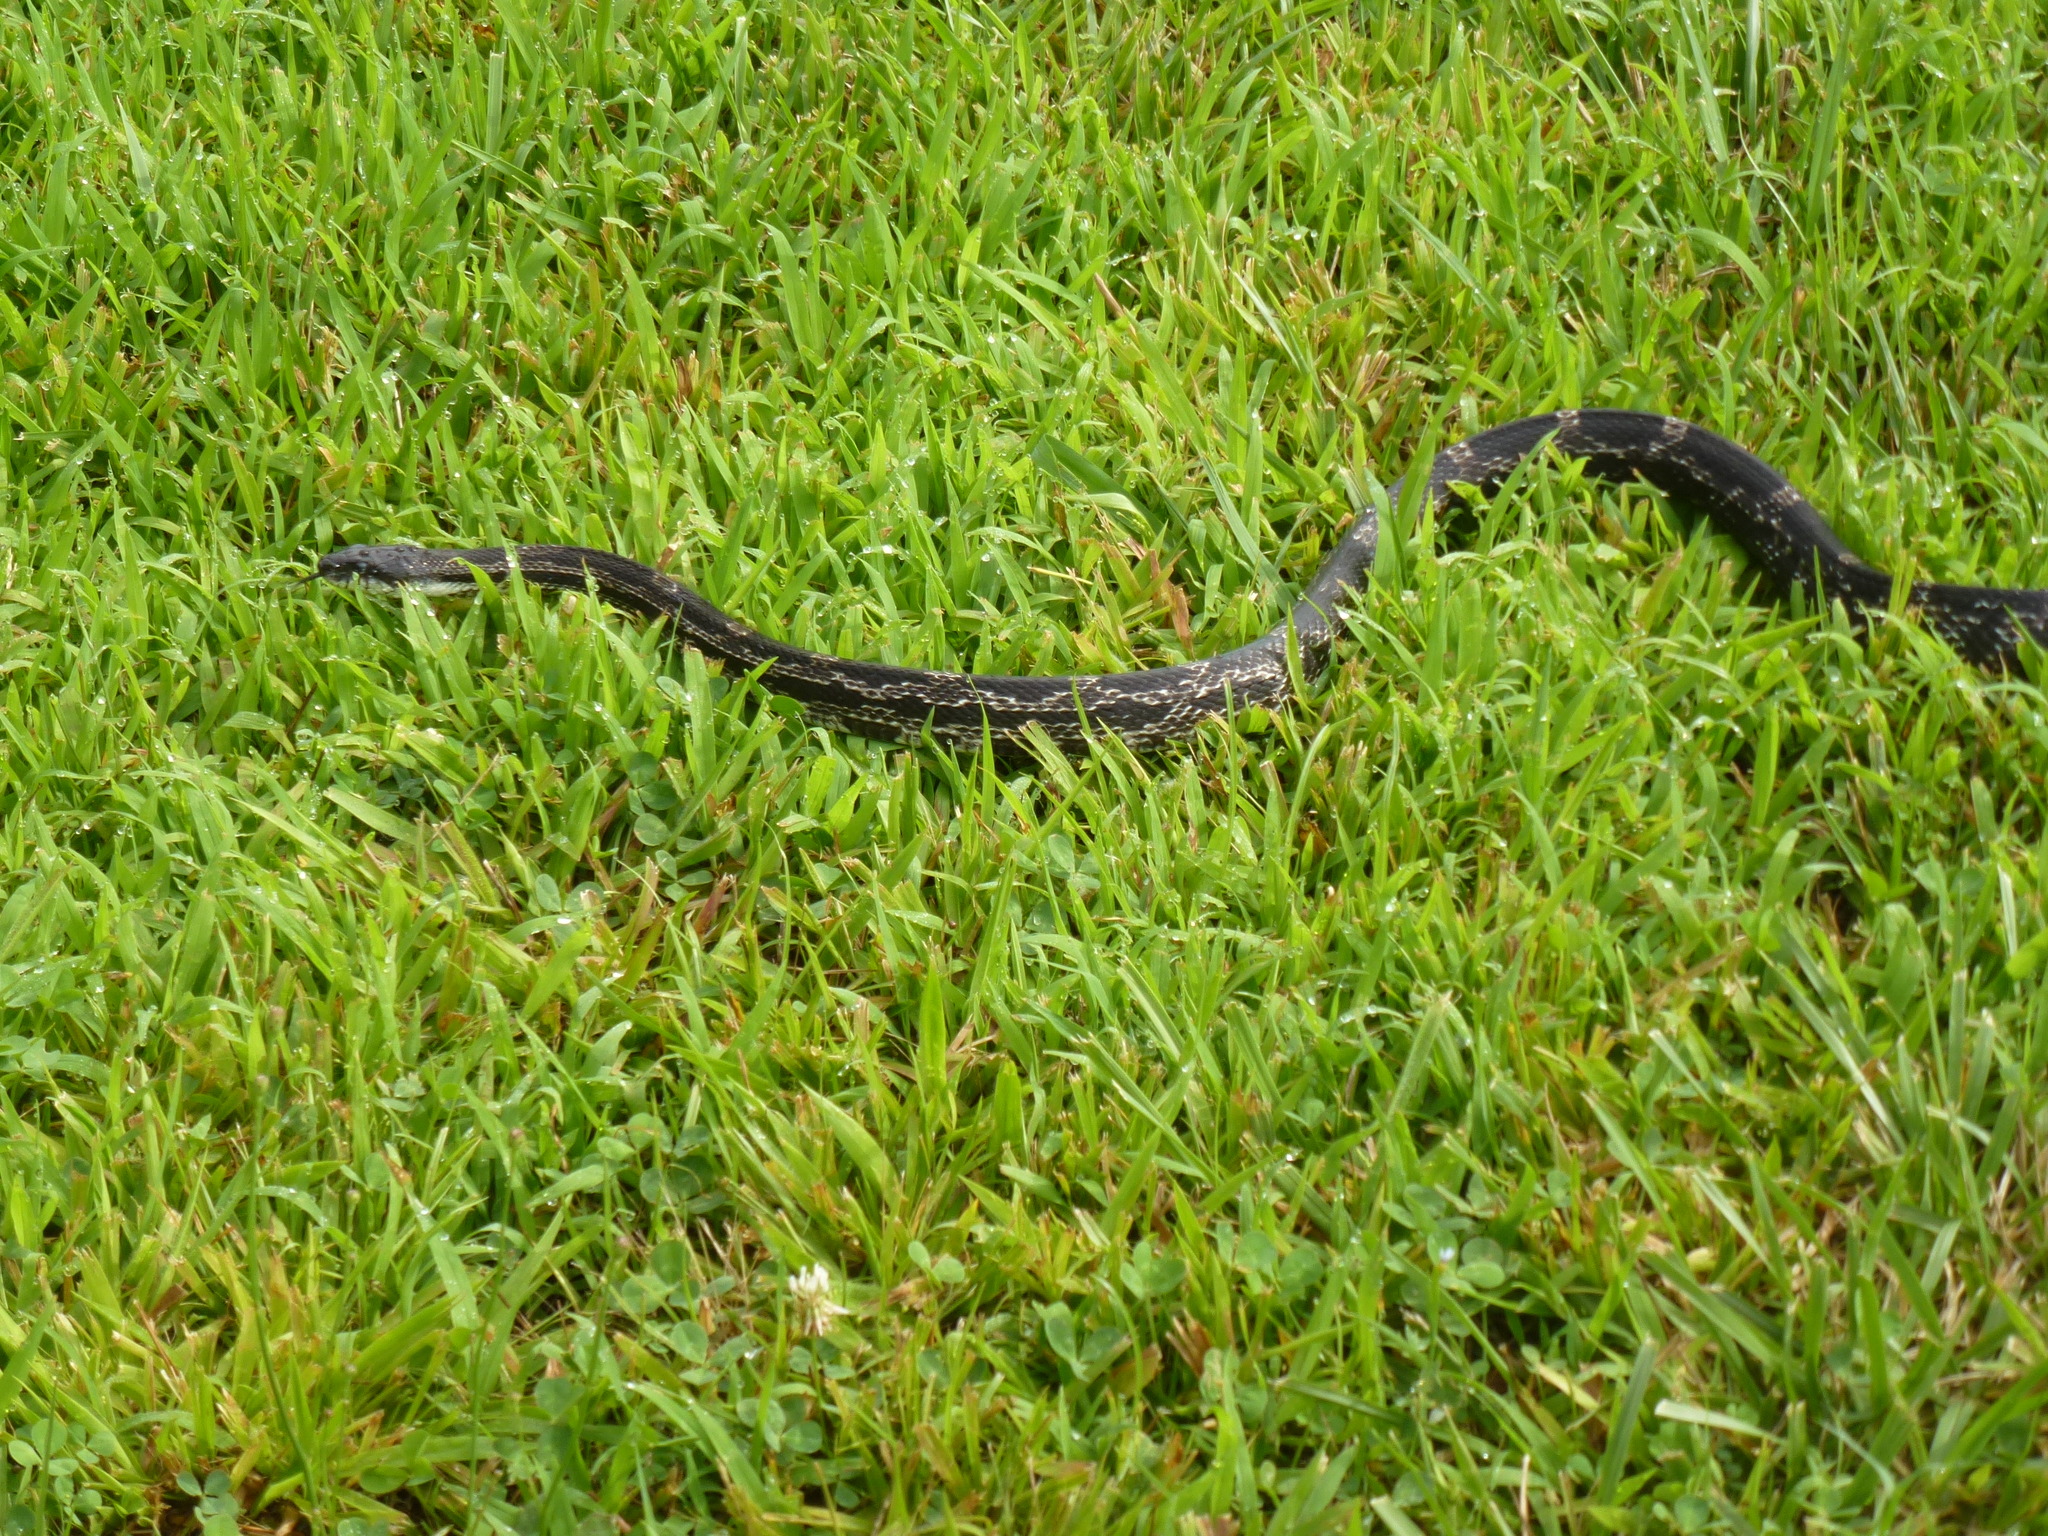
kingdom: Animalia
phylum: Chordata
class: Squamata
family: Colubridae
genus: Pantherophis
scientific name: Pantherophis spiloides
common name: Gray rat snake
